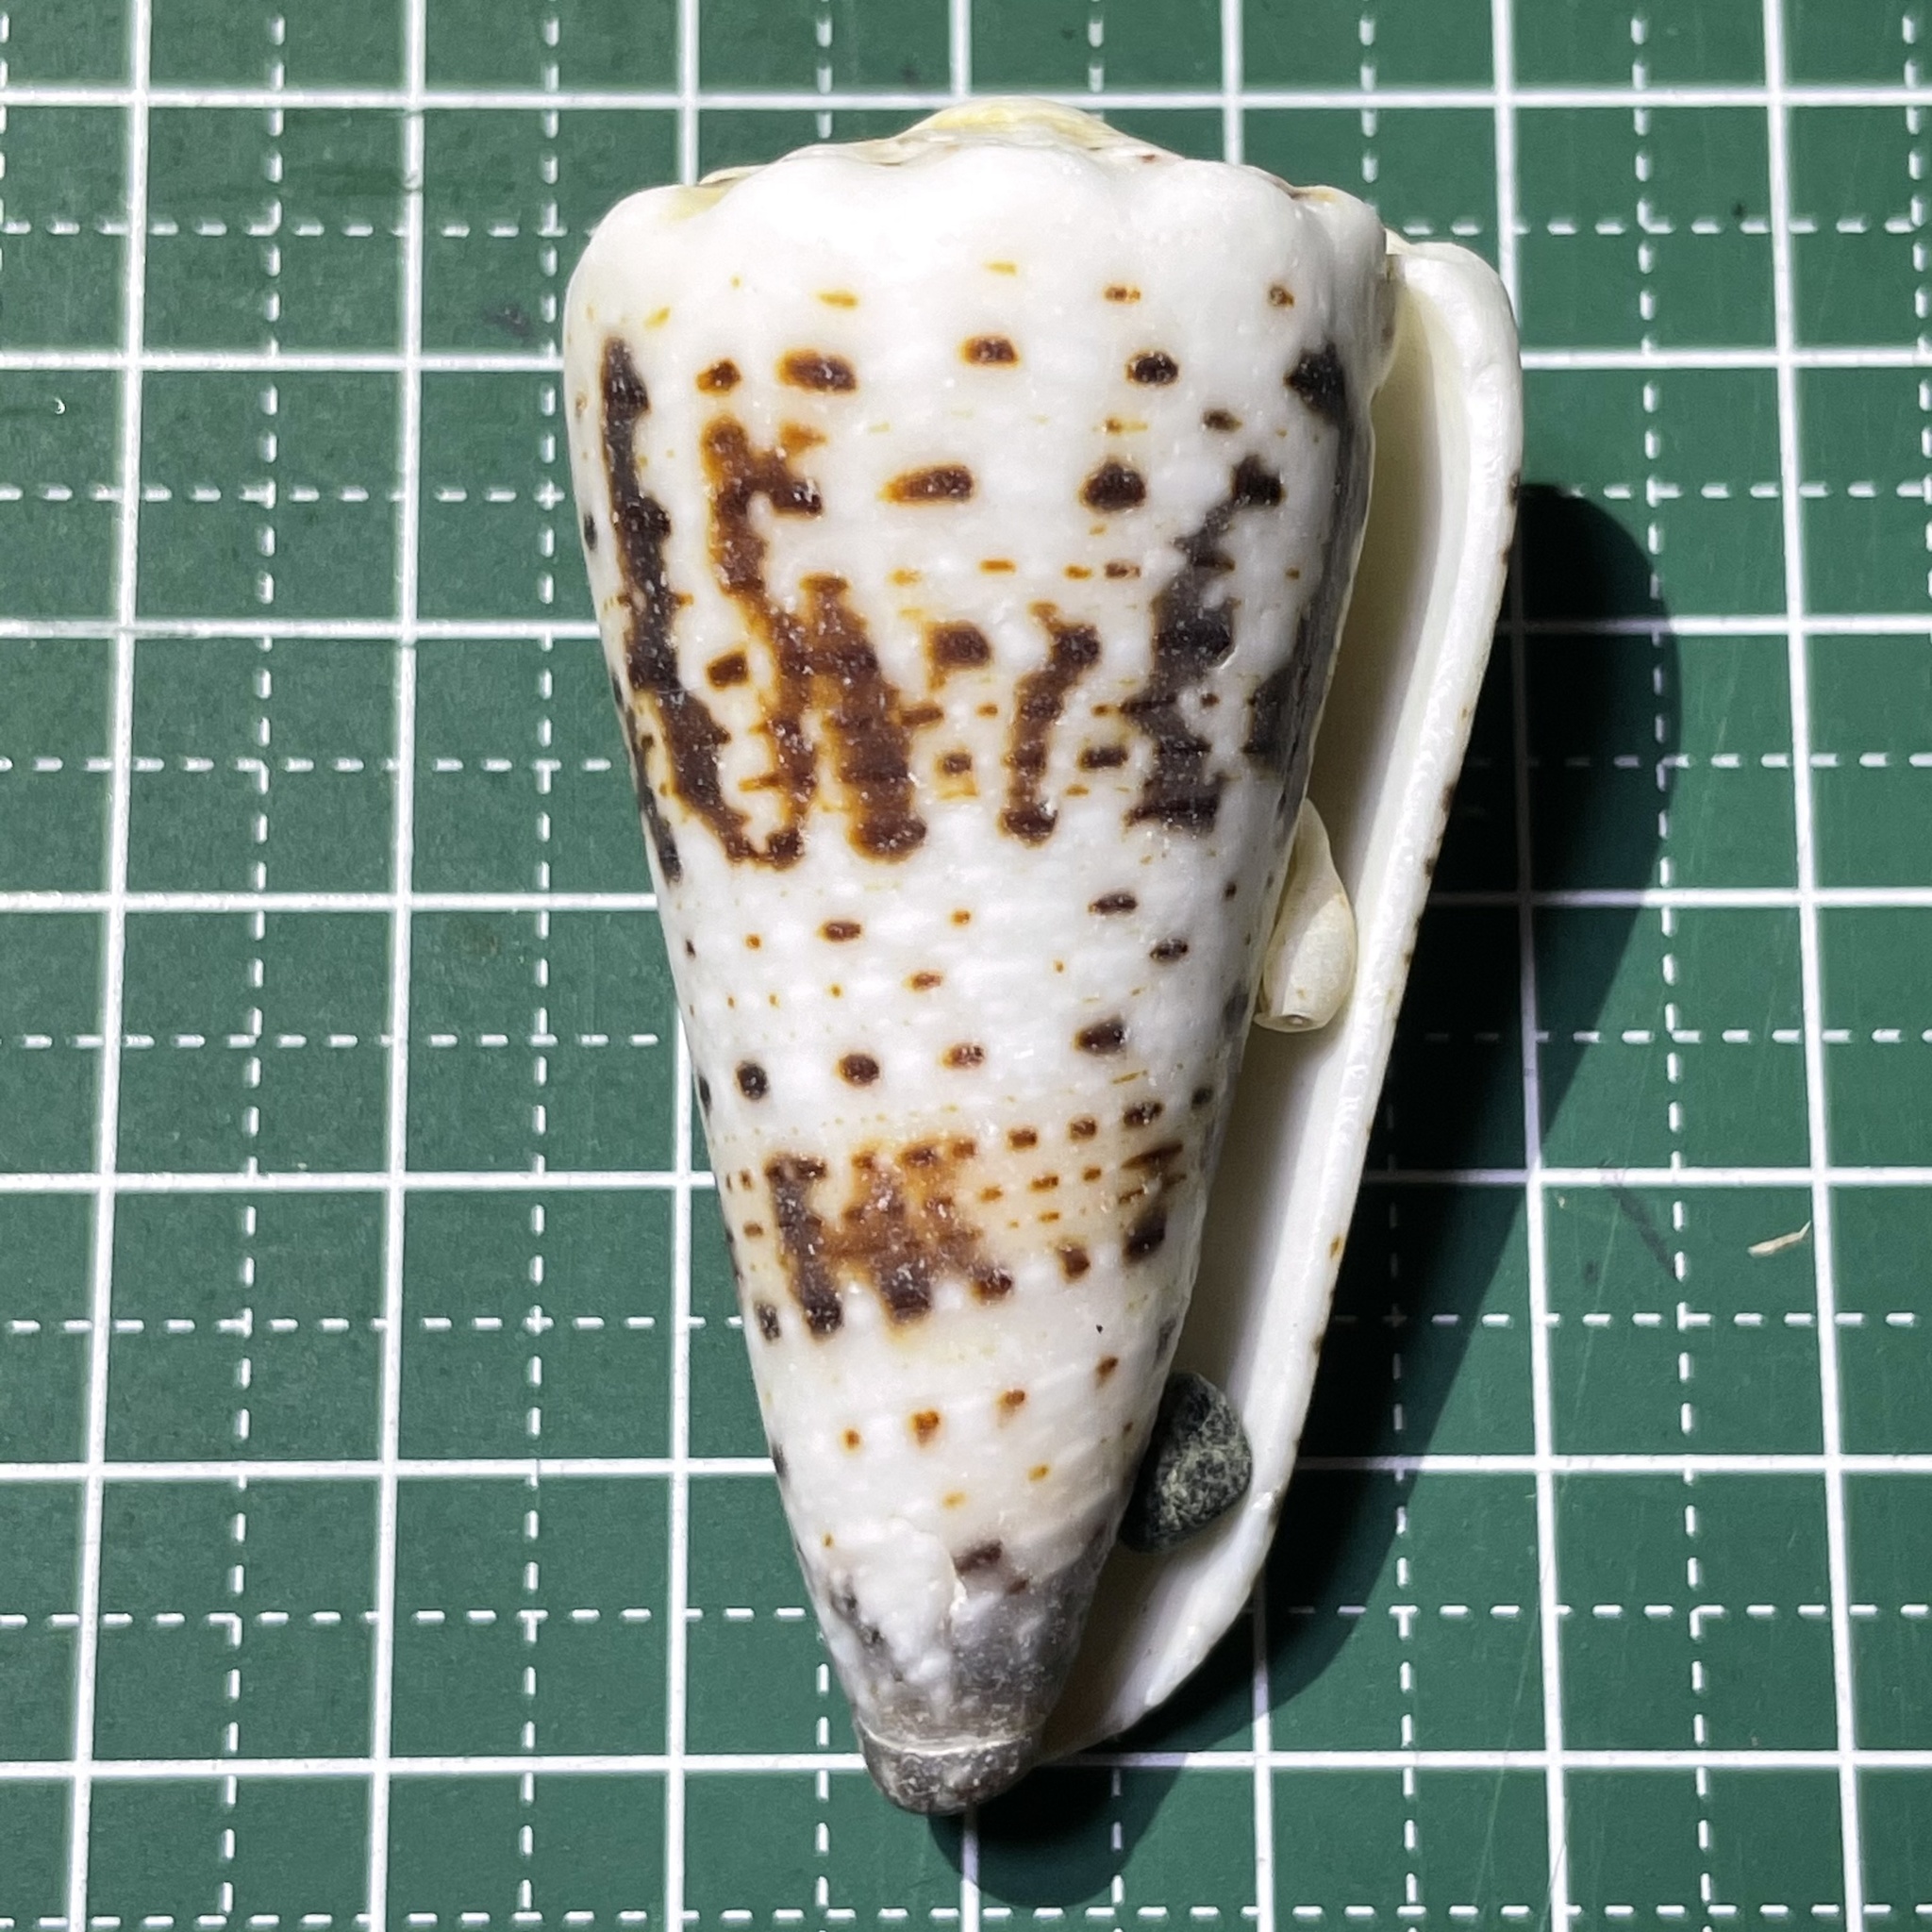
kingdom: Animalia
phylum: Mollusca
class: Gastropoda
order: Neogastropoda
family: Conidae
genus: Conus
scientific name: Conus imperialis
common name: Imperial cone
